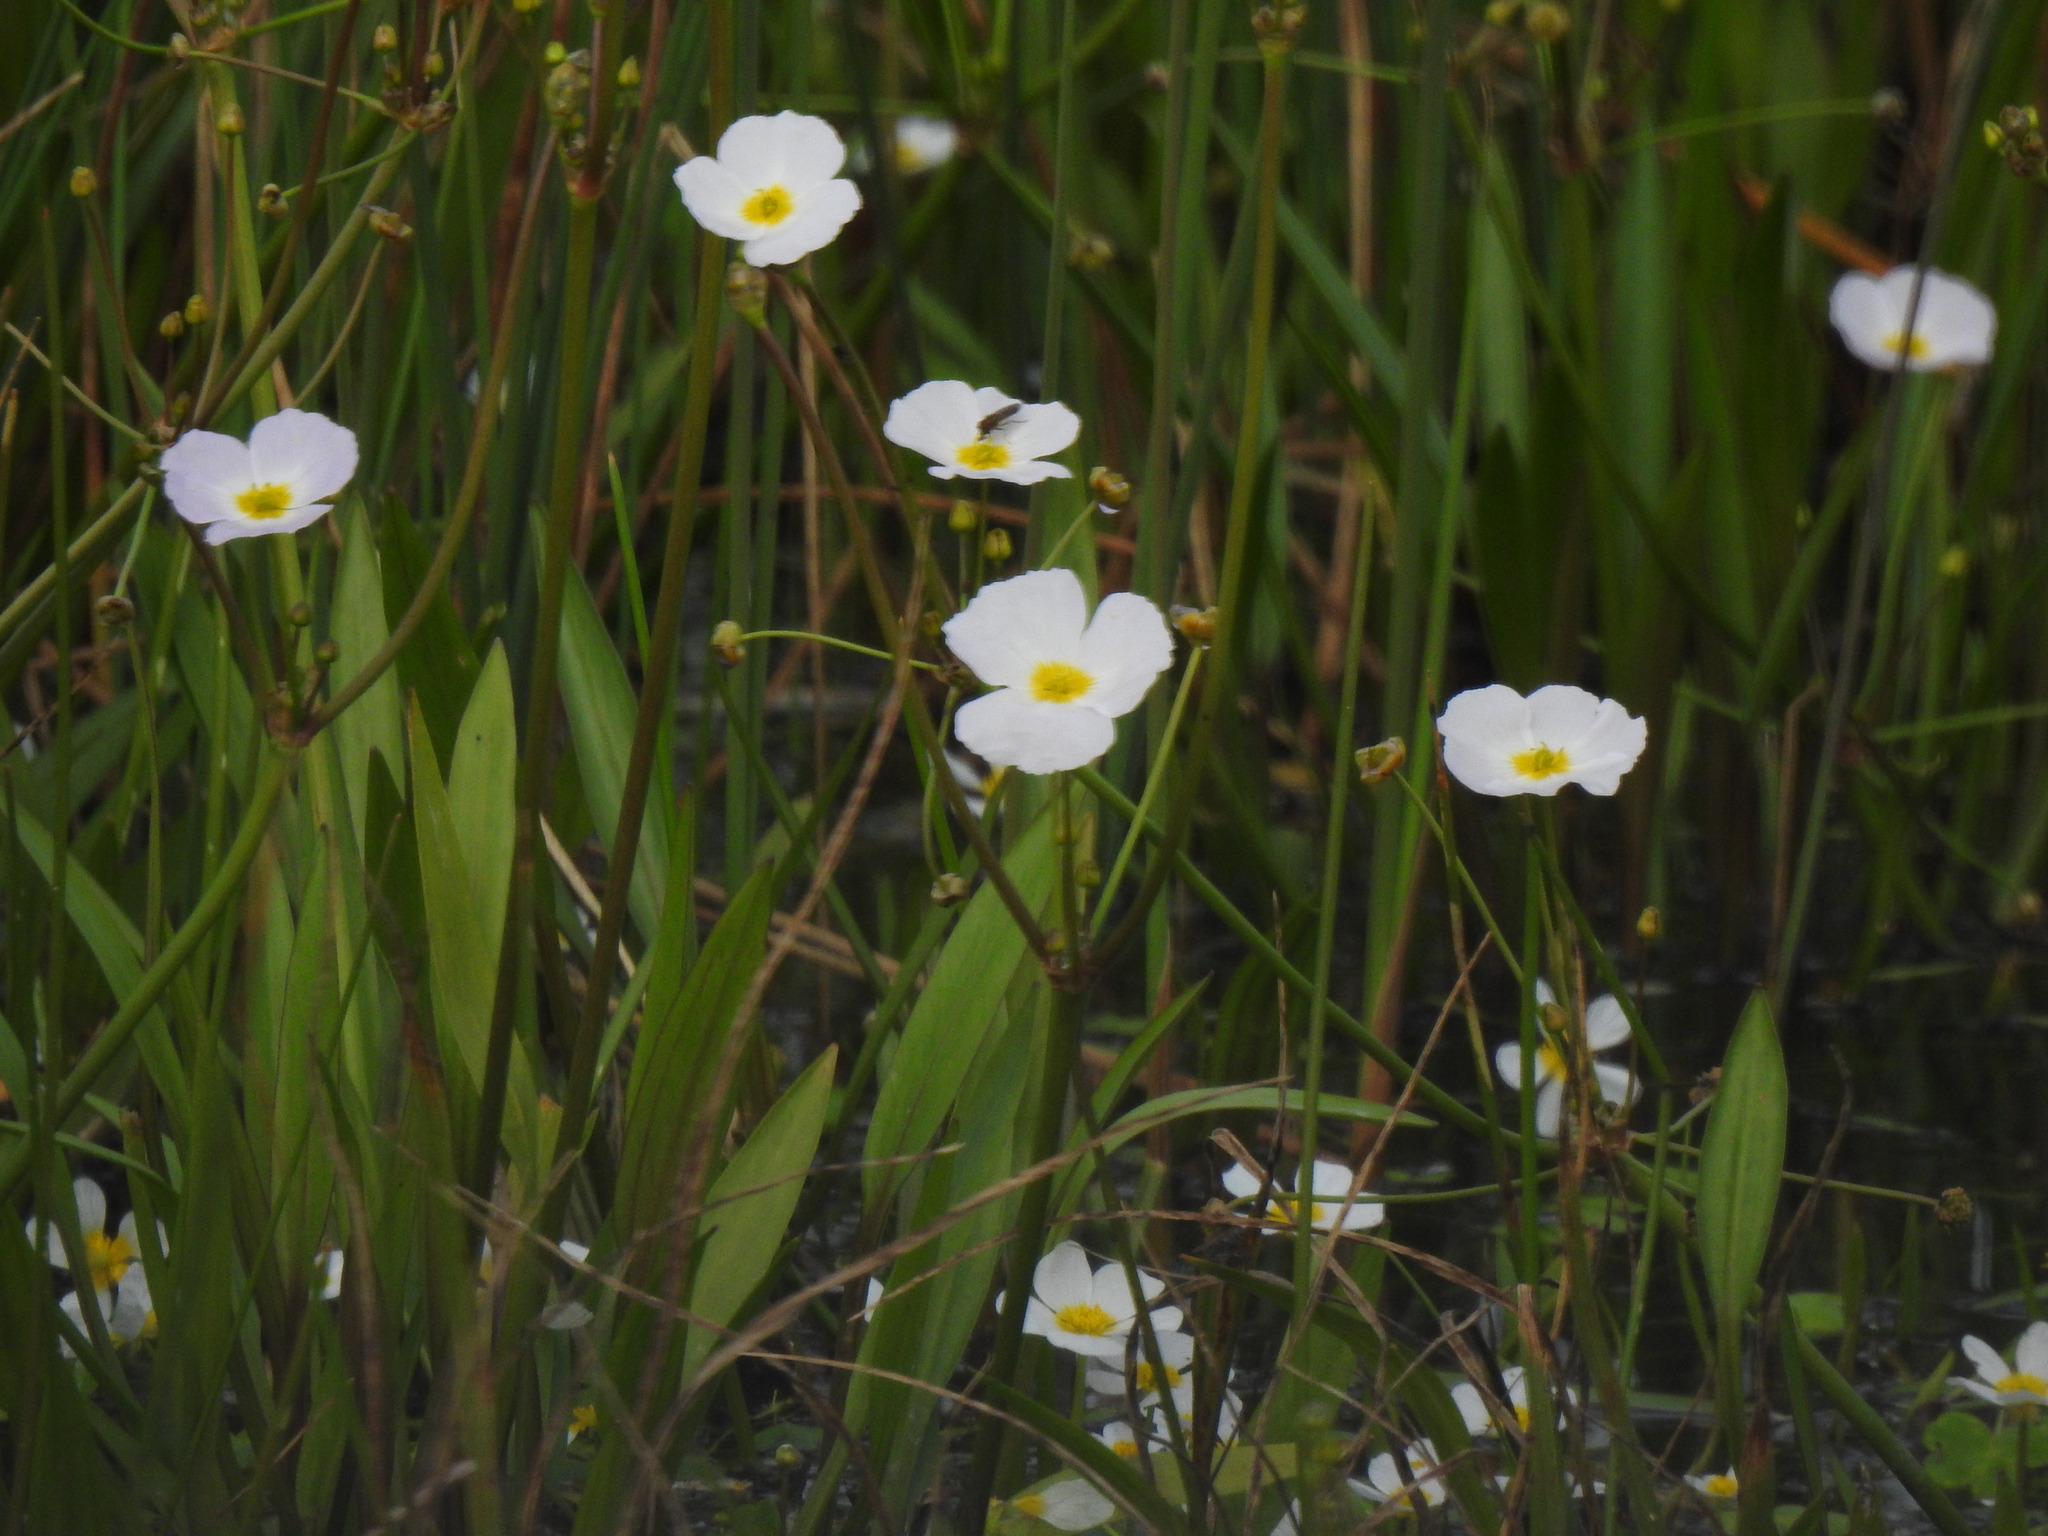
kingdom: Plantae
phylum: Tracheophyta
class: Liliopsida
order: Alismatales
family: Alismataceae
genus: Baldellia
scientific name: Baldellia repens
